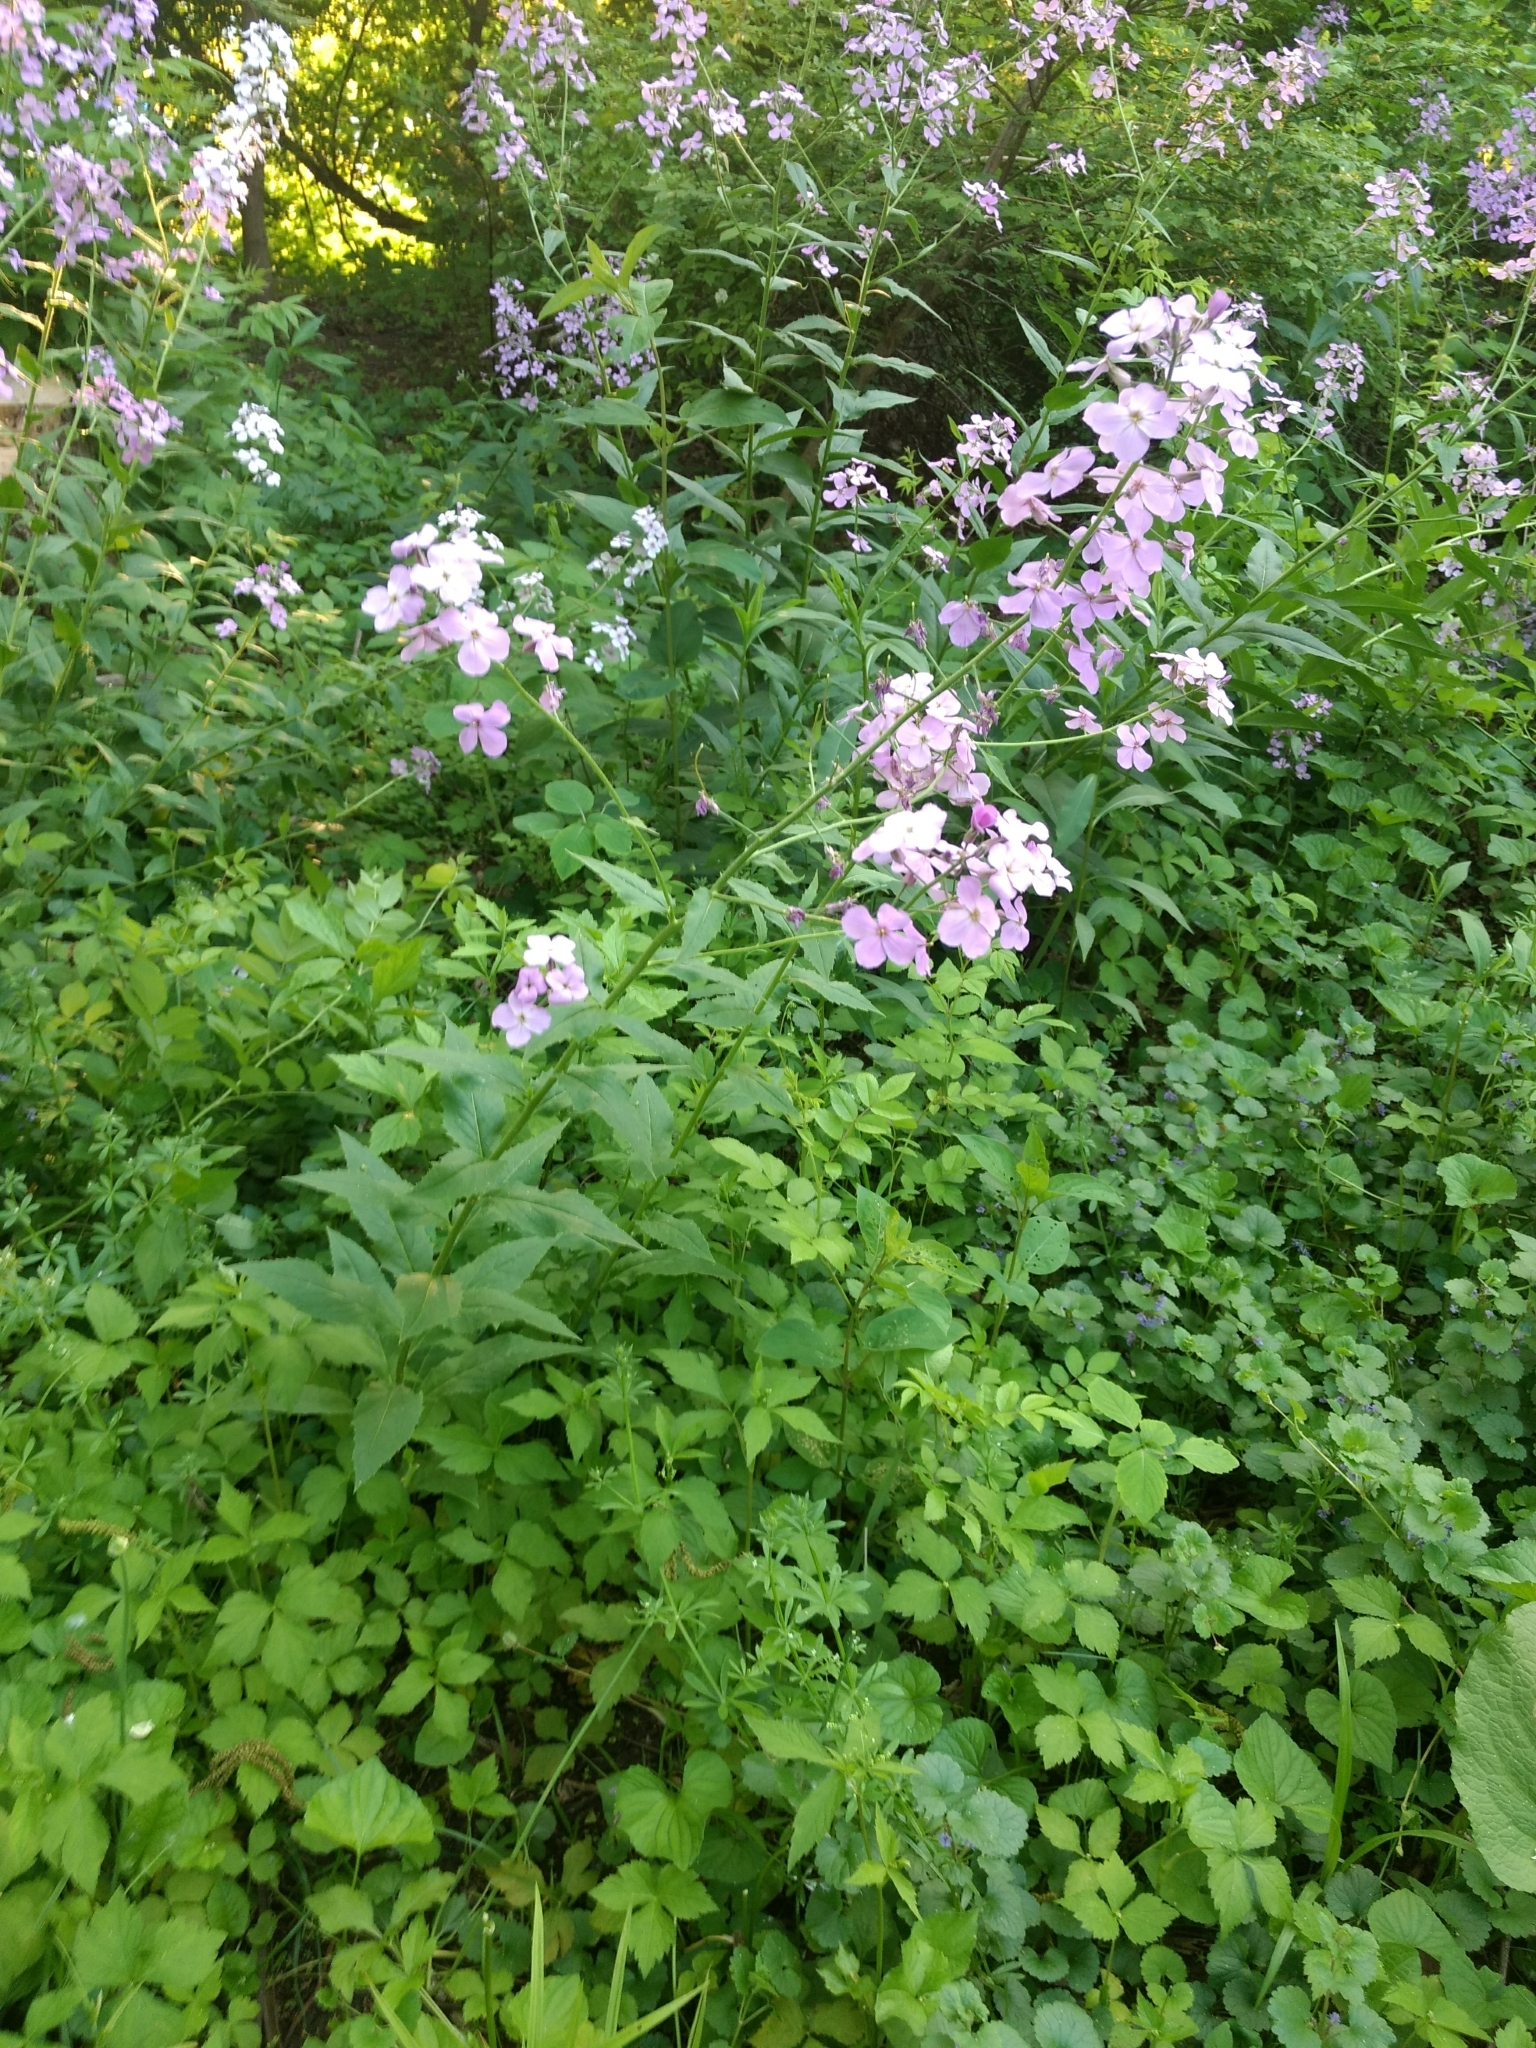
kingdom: Plantae
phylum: Tracheophyta
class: Magnoliopsida
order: Brassicales
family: Brassicaceae
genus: Hesperis
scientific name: Hesperis matronalis
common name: Dame's-violet
